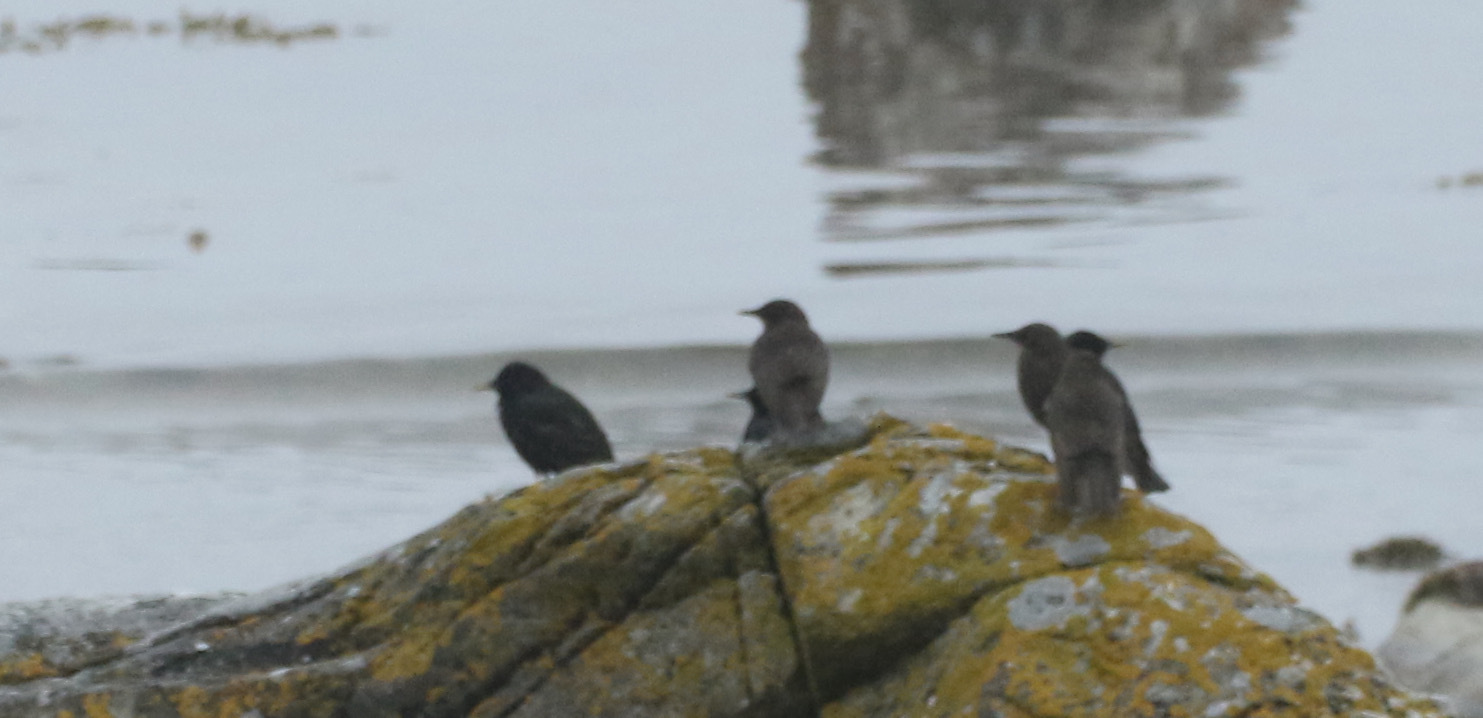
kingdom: Animalia
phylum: Chordata
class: Aves
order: Passeriformes
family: Sturnidae
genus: Sturnus
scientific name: Sturnus vulgaris
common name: Common starling
